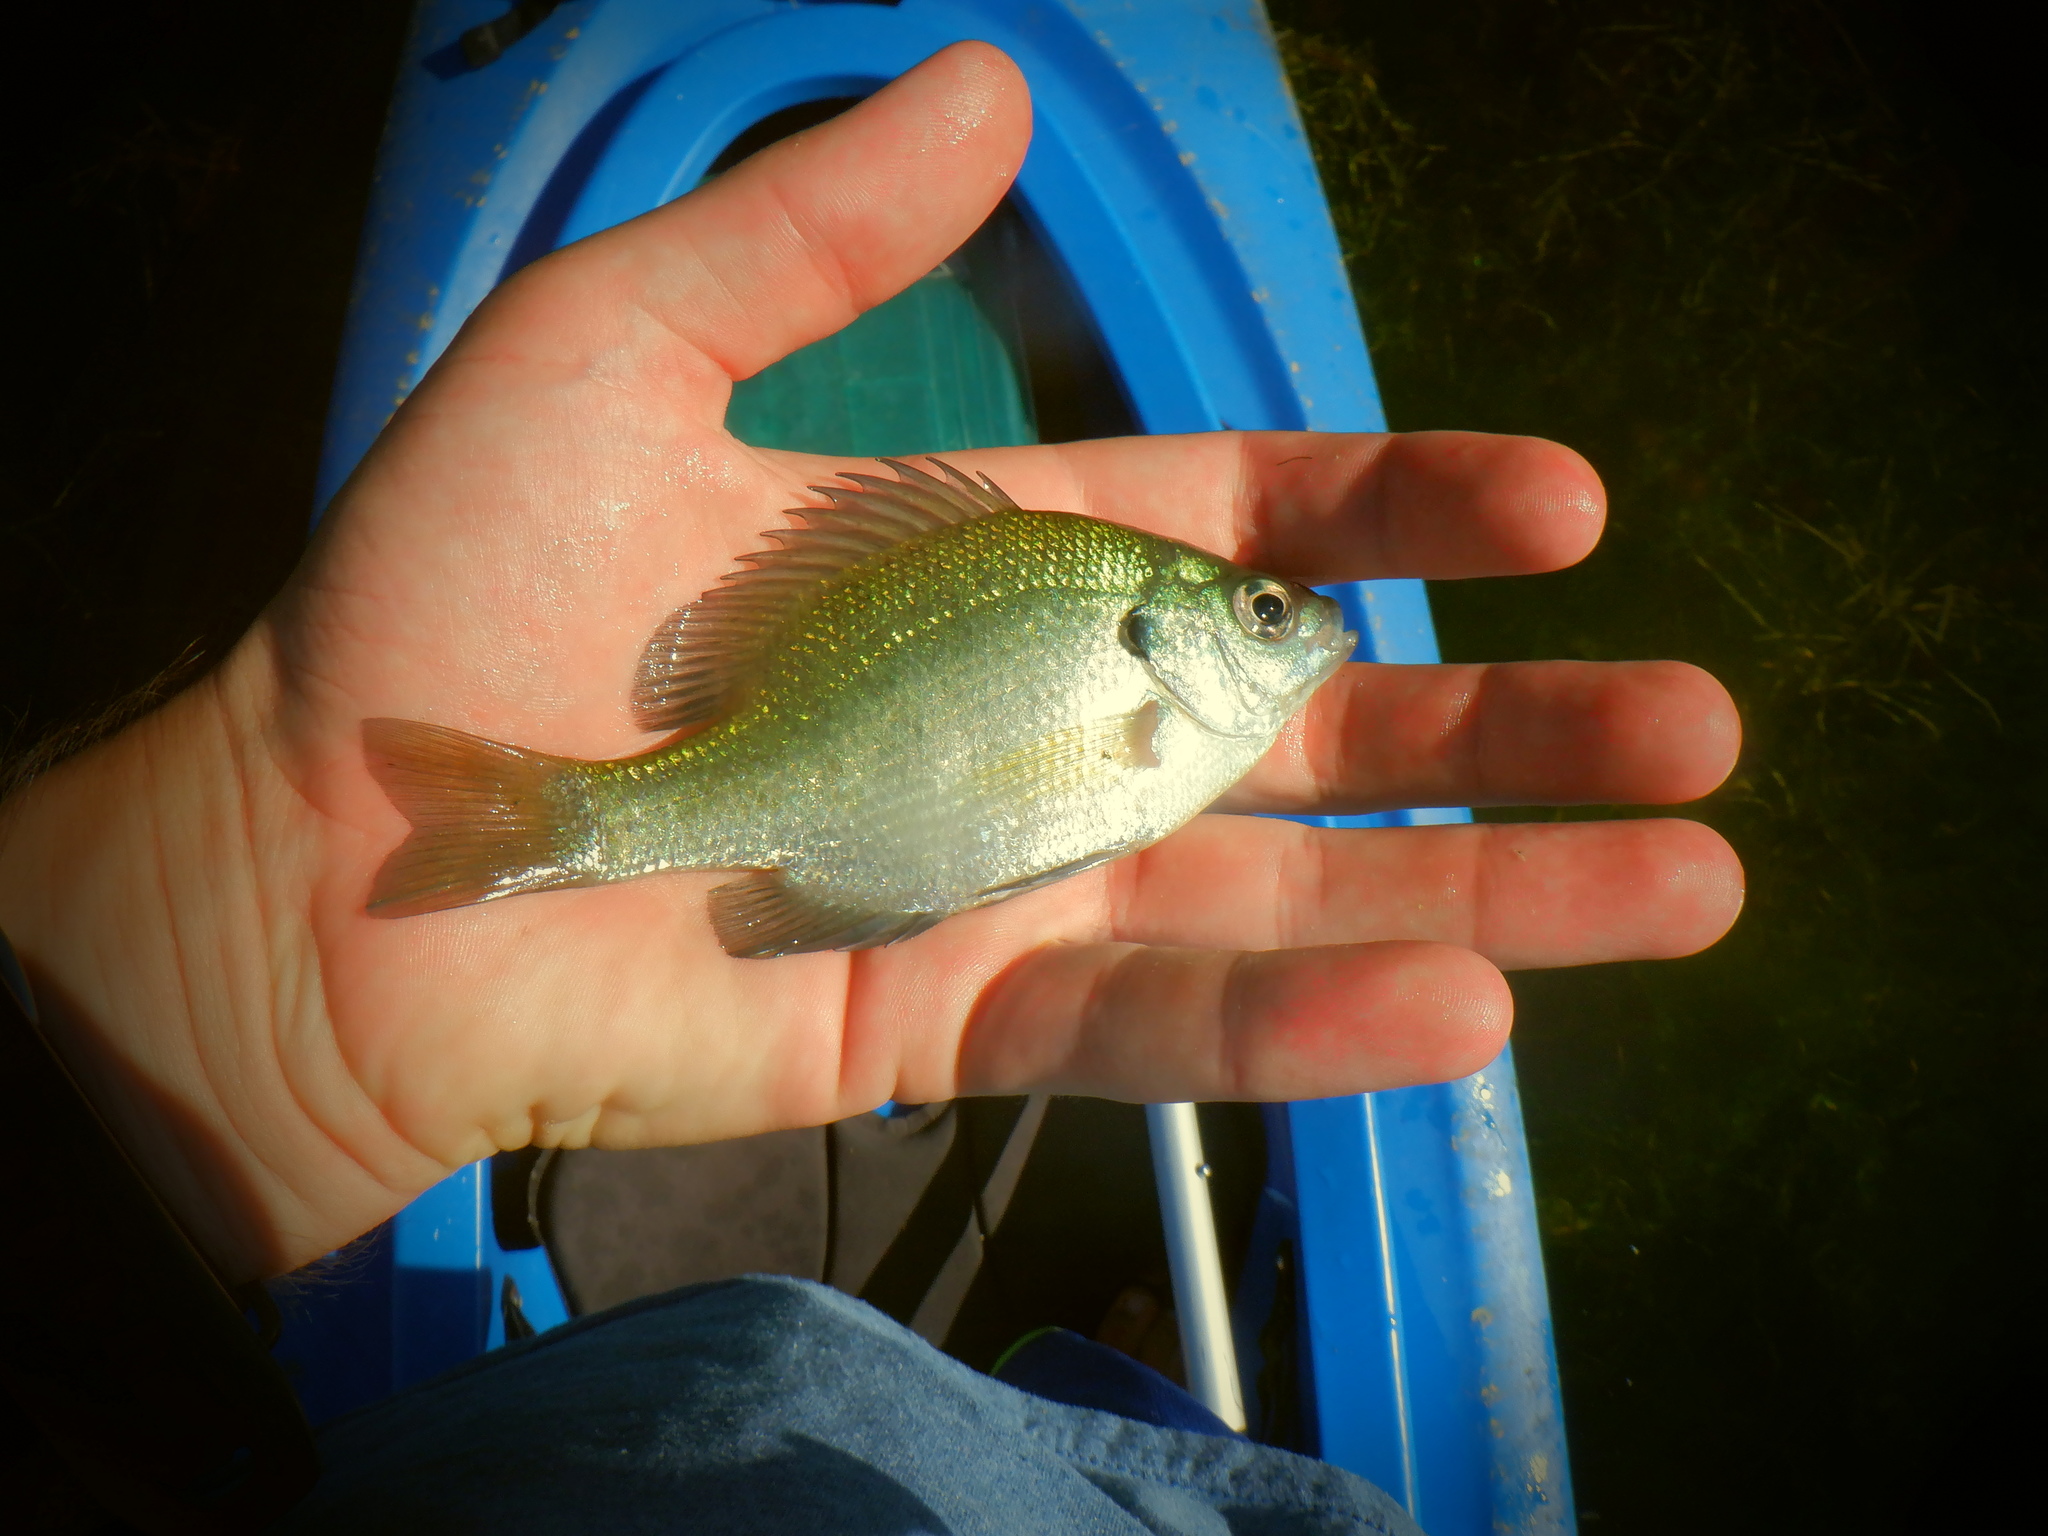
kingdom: Animalia
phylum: Chordata
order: Perciformes
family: Centrarchidae
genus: Lepomis
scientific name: Lepomis macrochirus
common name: Bluegill
